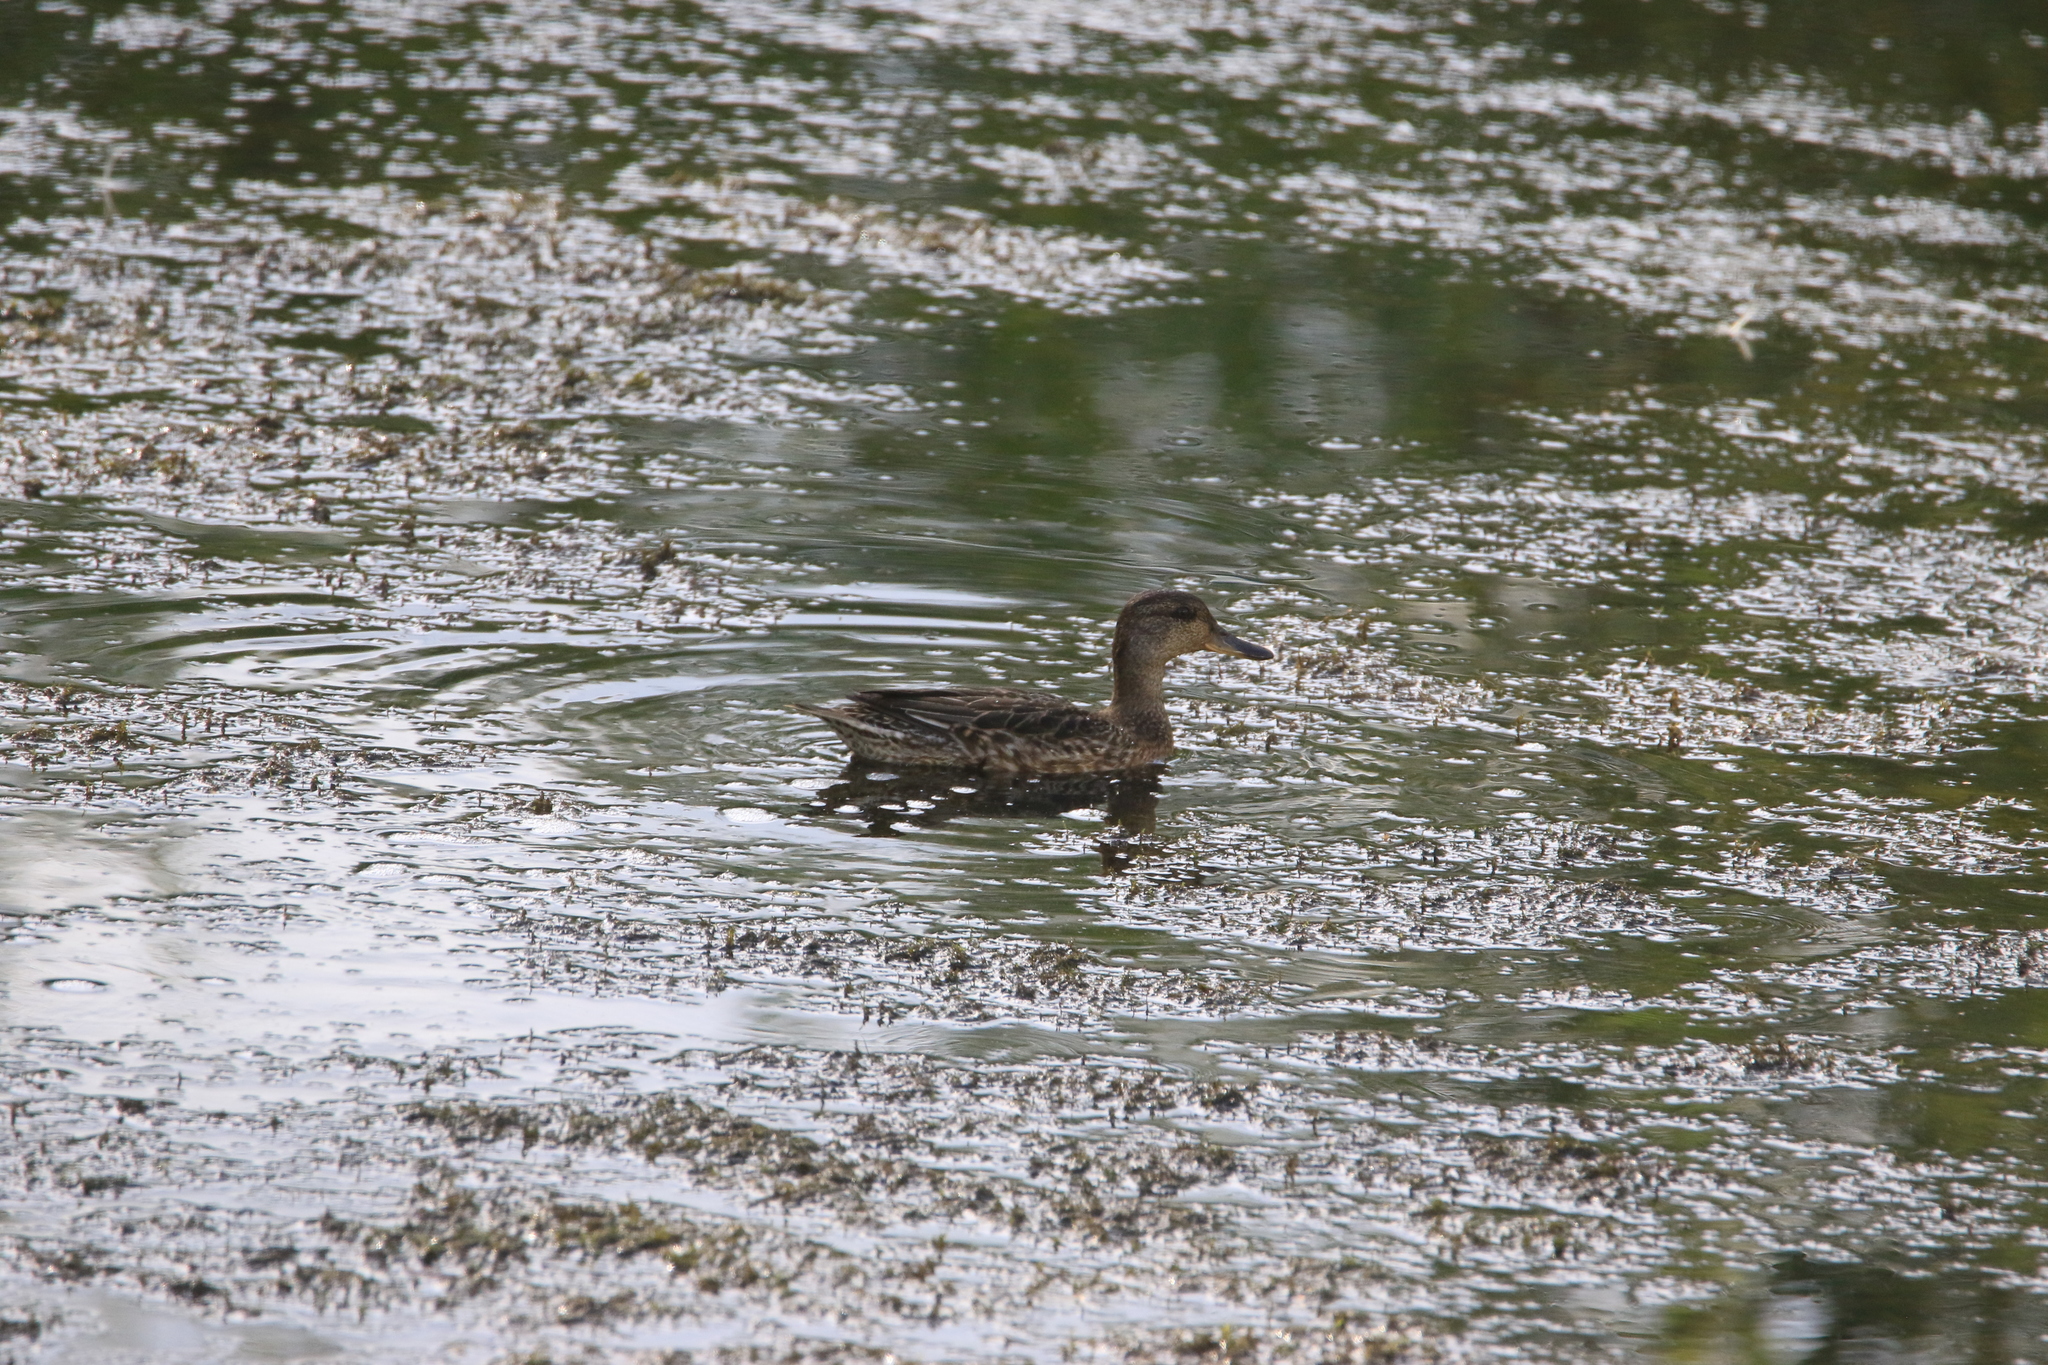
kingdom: Animalia
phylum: Chordata
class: Aves
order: Anseriformes
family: Anatidae
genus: Anas
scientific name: Anas crecca
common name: Eurasian teal
